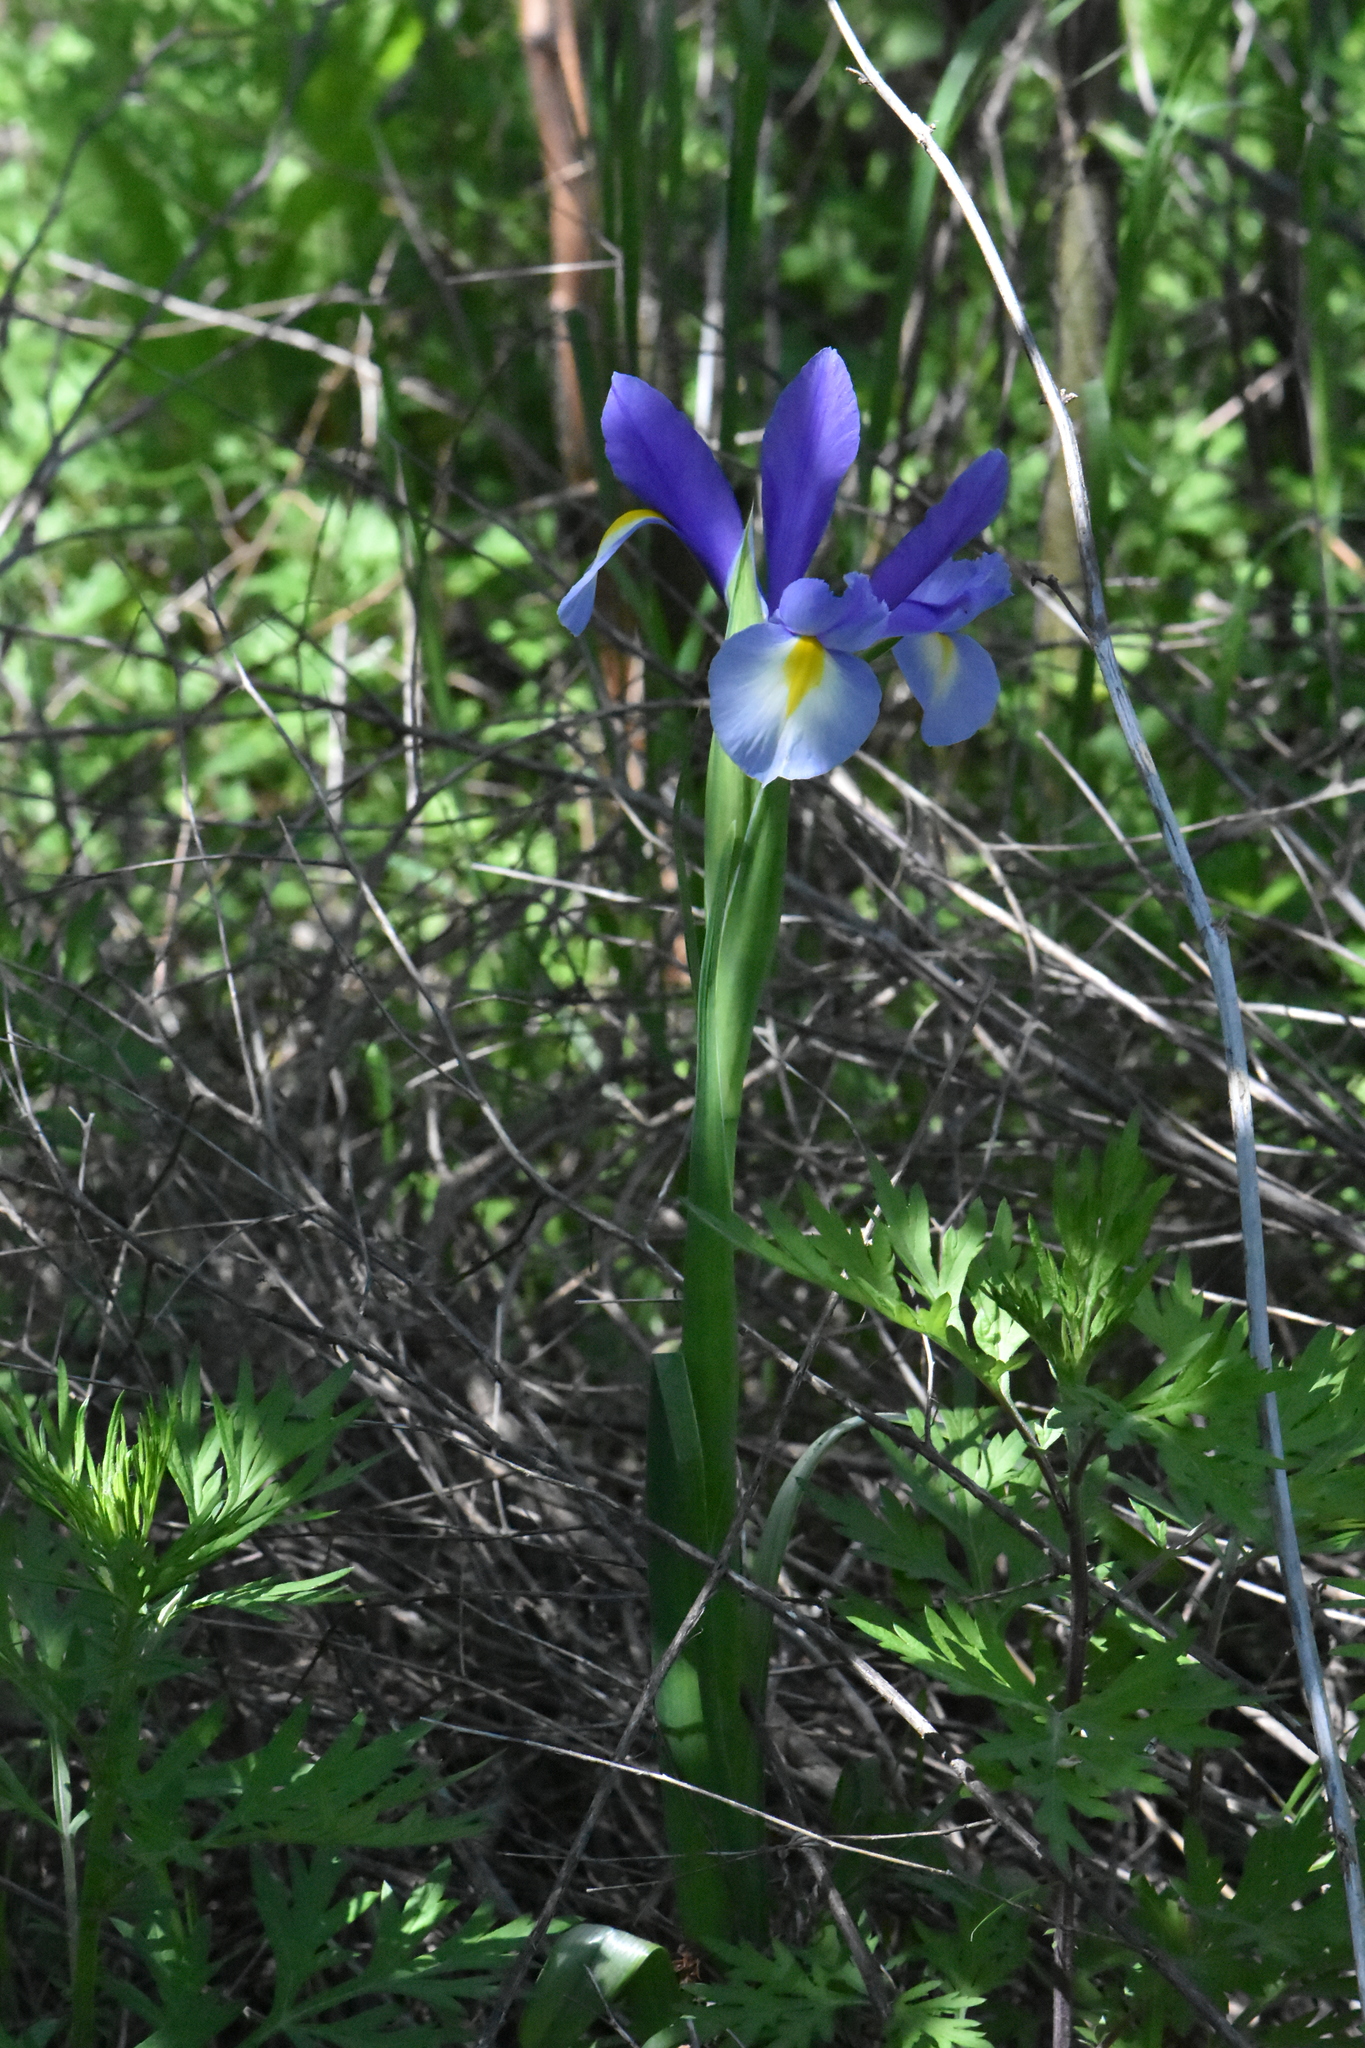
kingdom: Plantae
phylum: Tracheophyta
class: Liliopsida
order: Asparagales
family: Iridaceae
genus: Iris
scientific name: Iris hollandica
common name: Dutch iris
